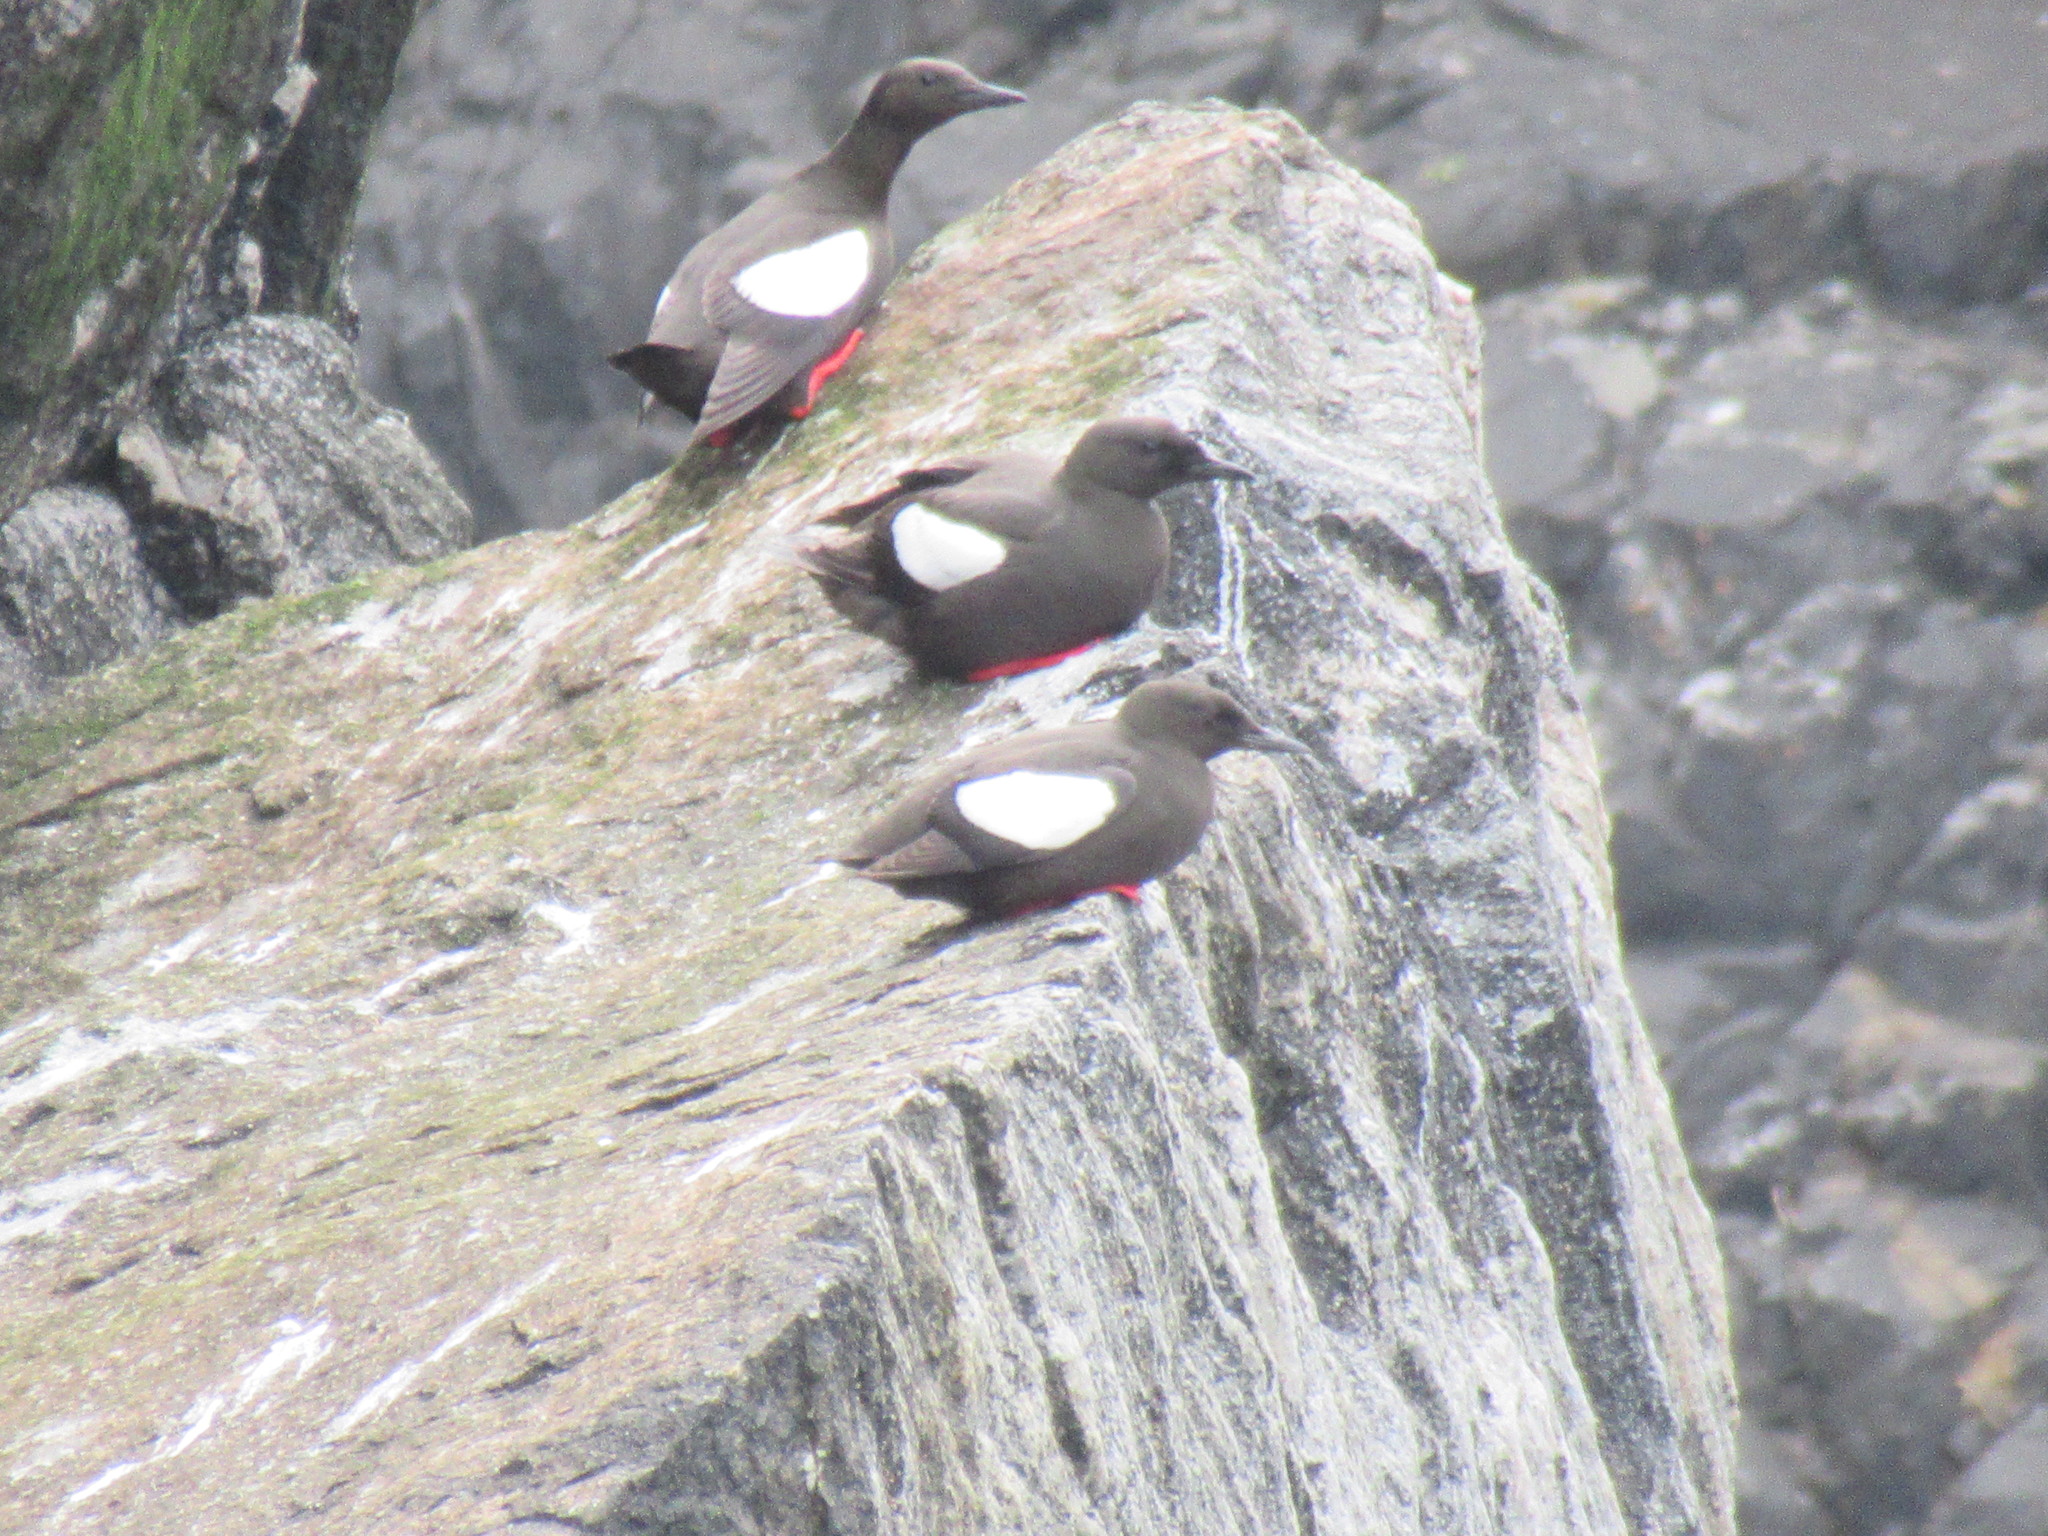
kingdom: Animalia
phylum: Chordata
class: Aves
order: Charadriiformes
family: Alcidae
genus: Cepphus
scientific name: Cepphus grylle
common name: Black guillemot
